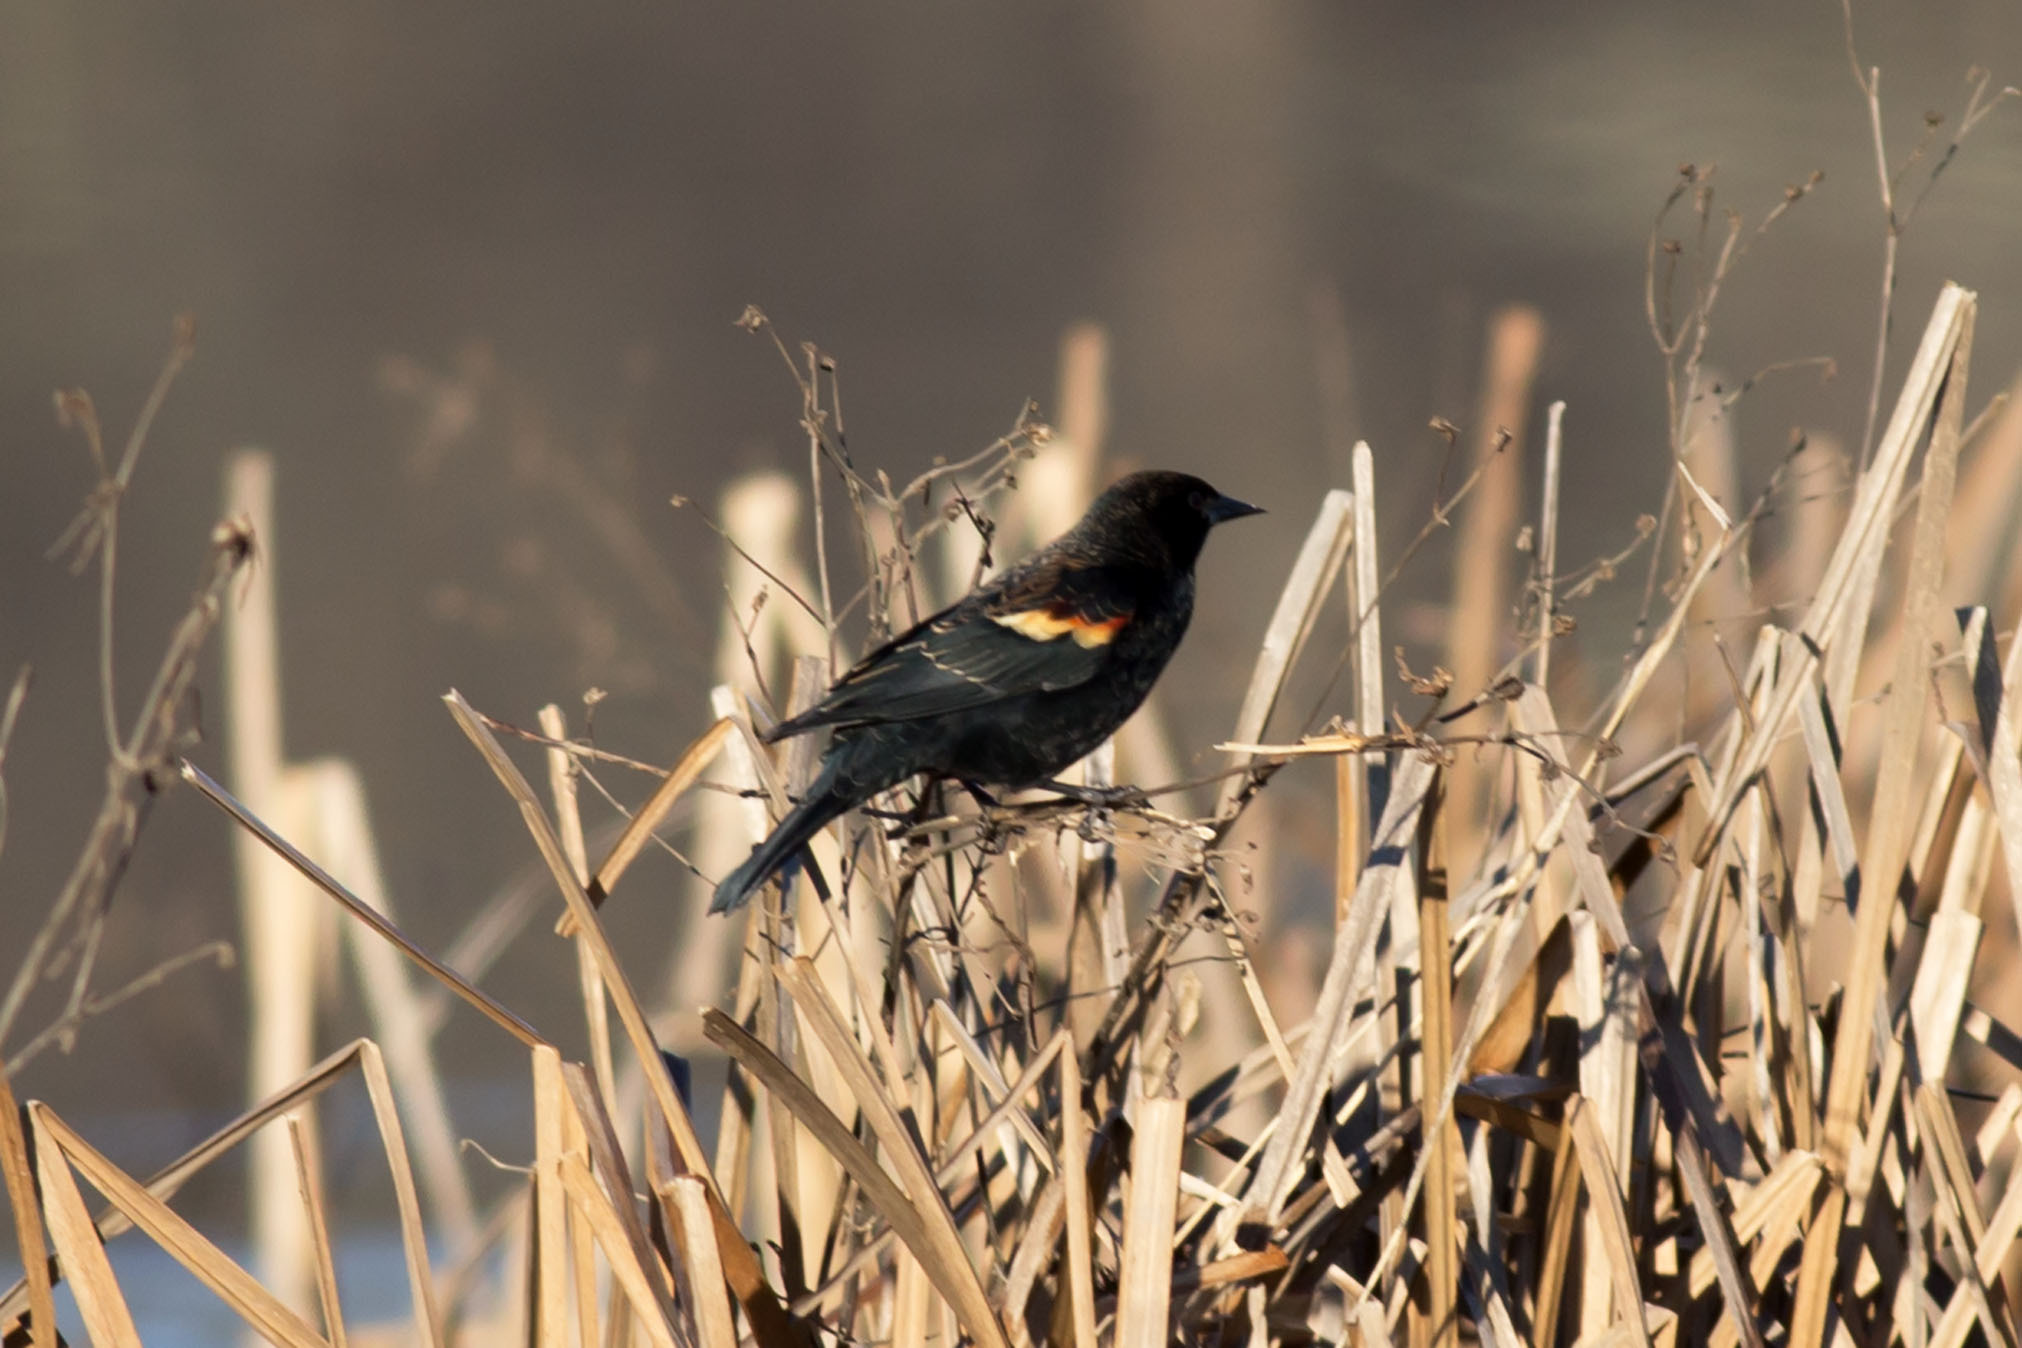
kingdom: Animalia
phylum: Chordata
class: Aves
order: Passeriformes
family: Icteridae
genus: Agelaius
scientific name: Agelaius phoeniceus
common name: Red-winged blackbird
